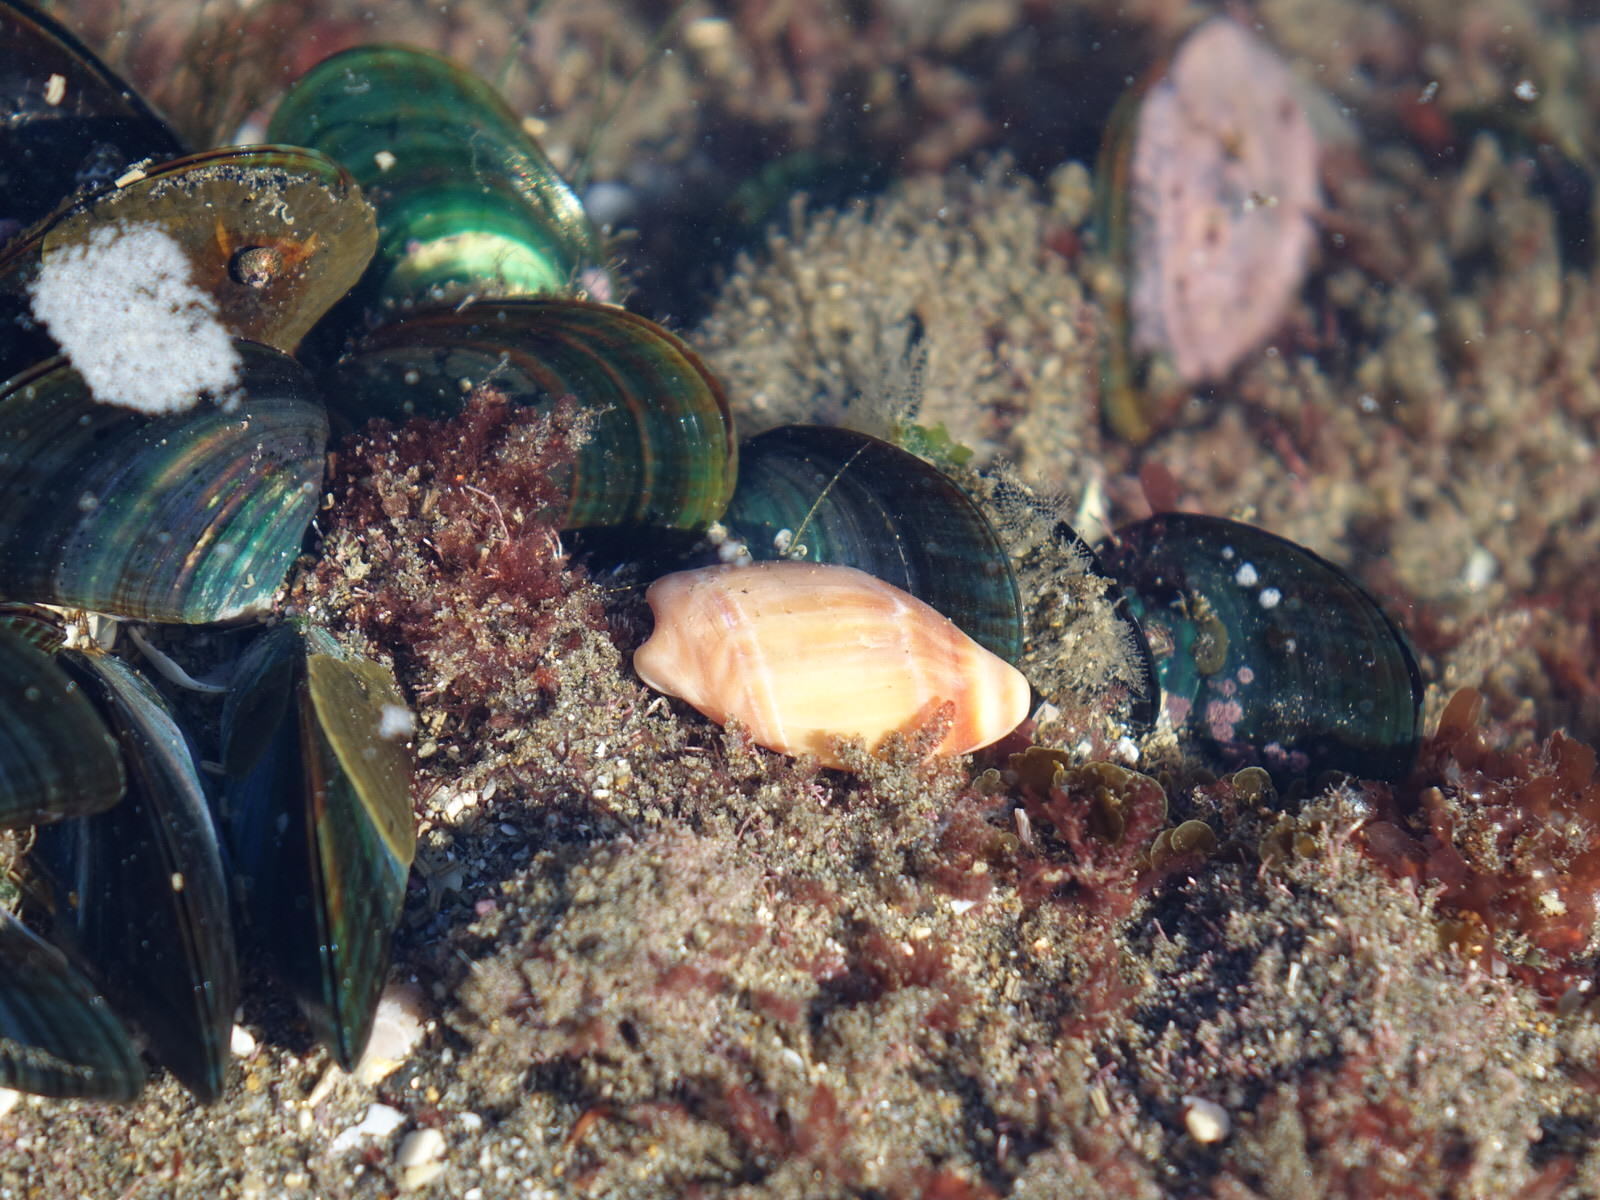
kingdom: Animalia
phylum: Arthropoda
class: Malacostraca
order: Decapoda
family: Paguridae
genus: Pagurus
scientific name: Pagurus novizealandiae
